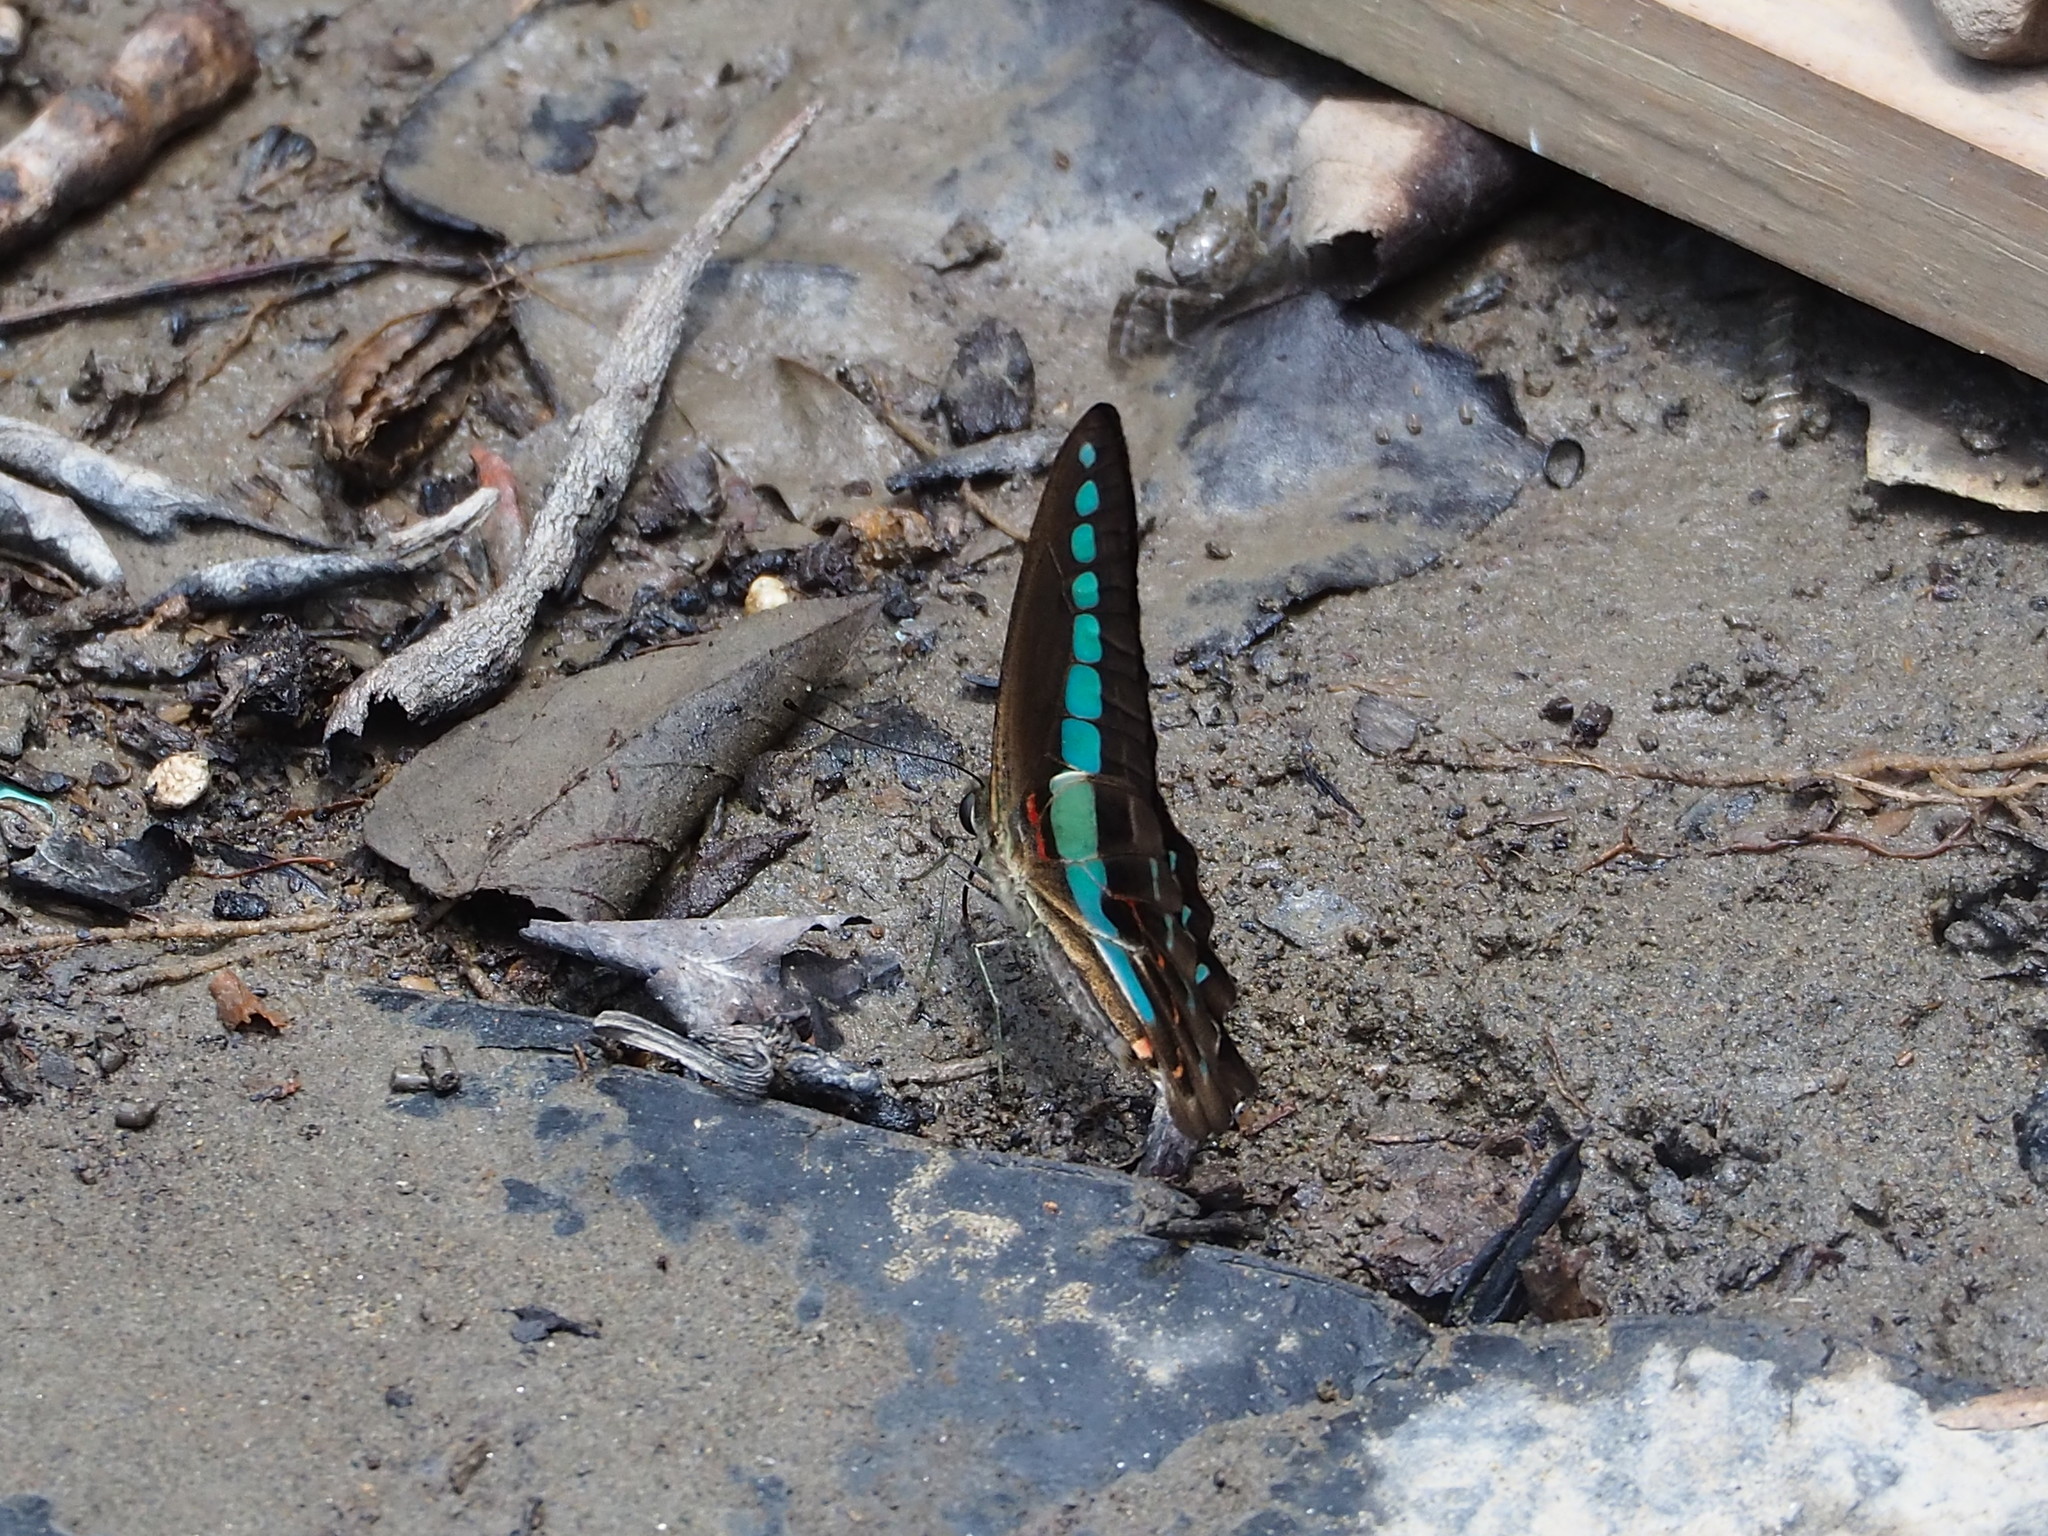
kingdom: Fungi
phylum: Ascomycota
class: Sordariomycetes
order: Microascales
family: Microascaceae
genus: Graphium
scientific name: Graphium sarpedon
